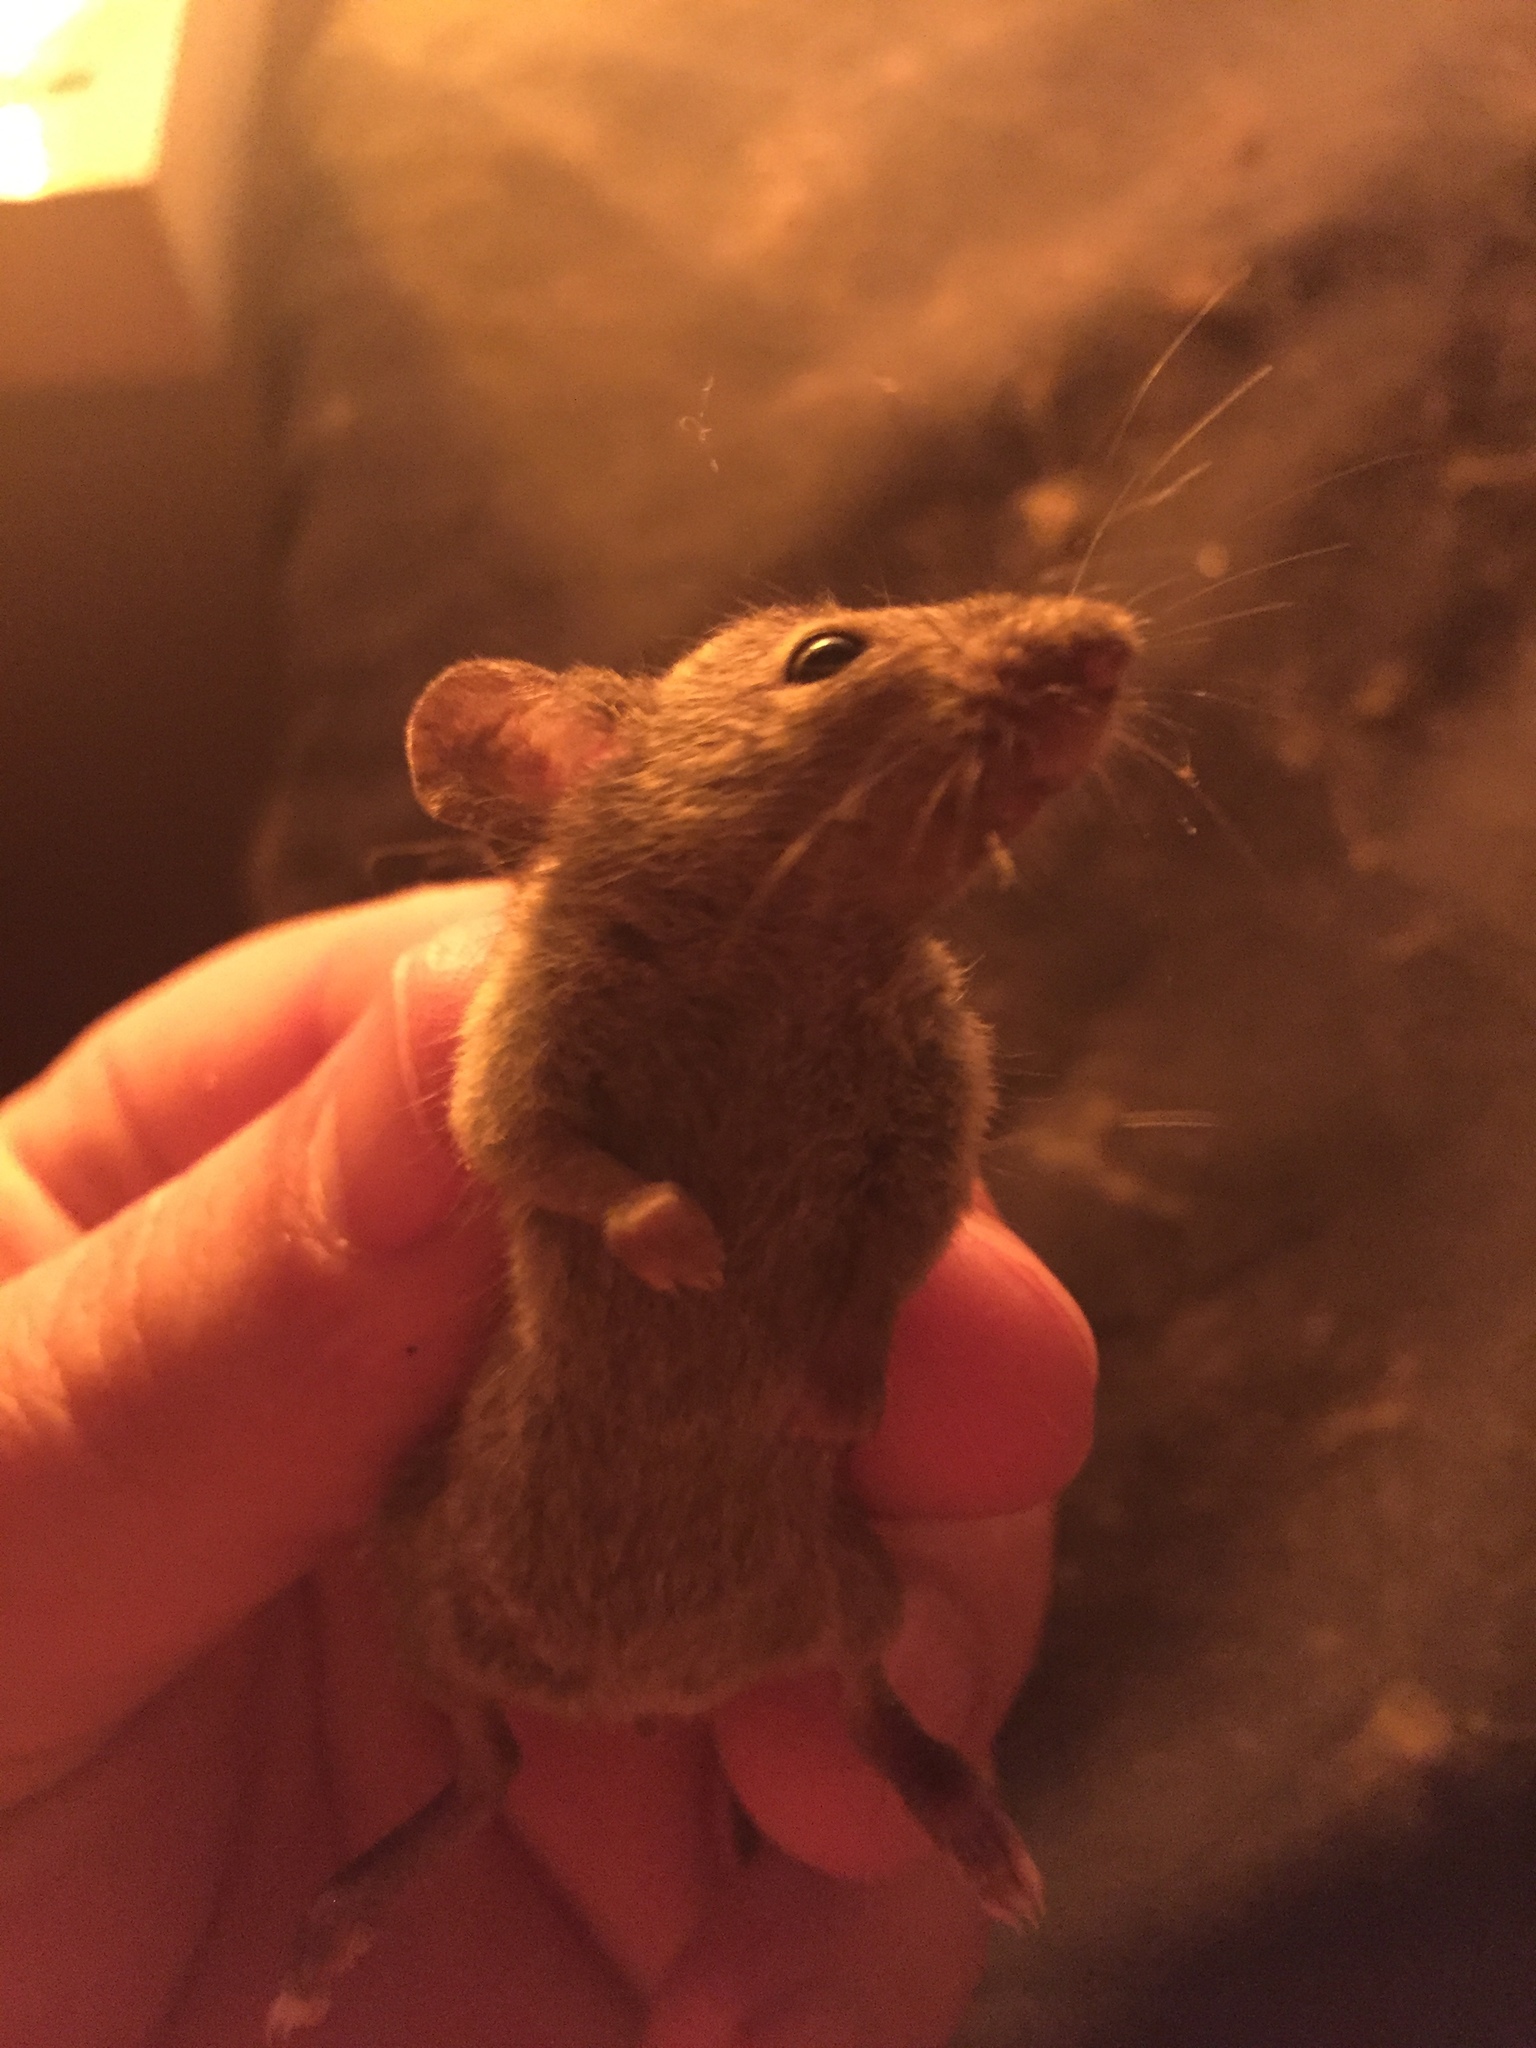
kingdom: Animalia
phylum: Chordata
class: Mammalia
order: Rodentia
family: Muridae
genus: Mus
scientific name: Mus musculus
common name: House mouse
